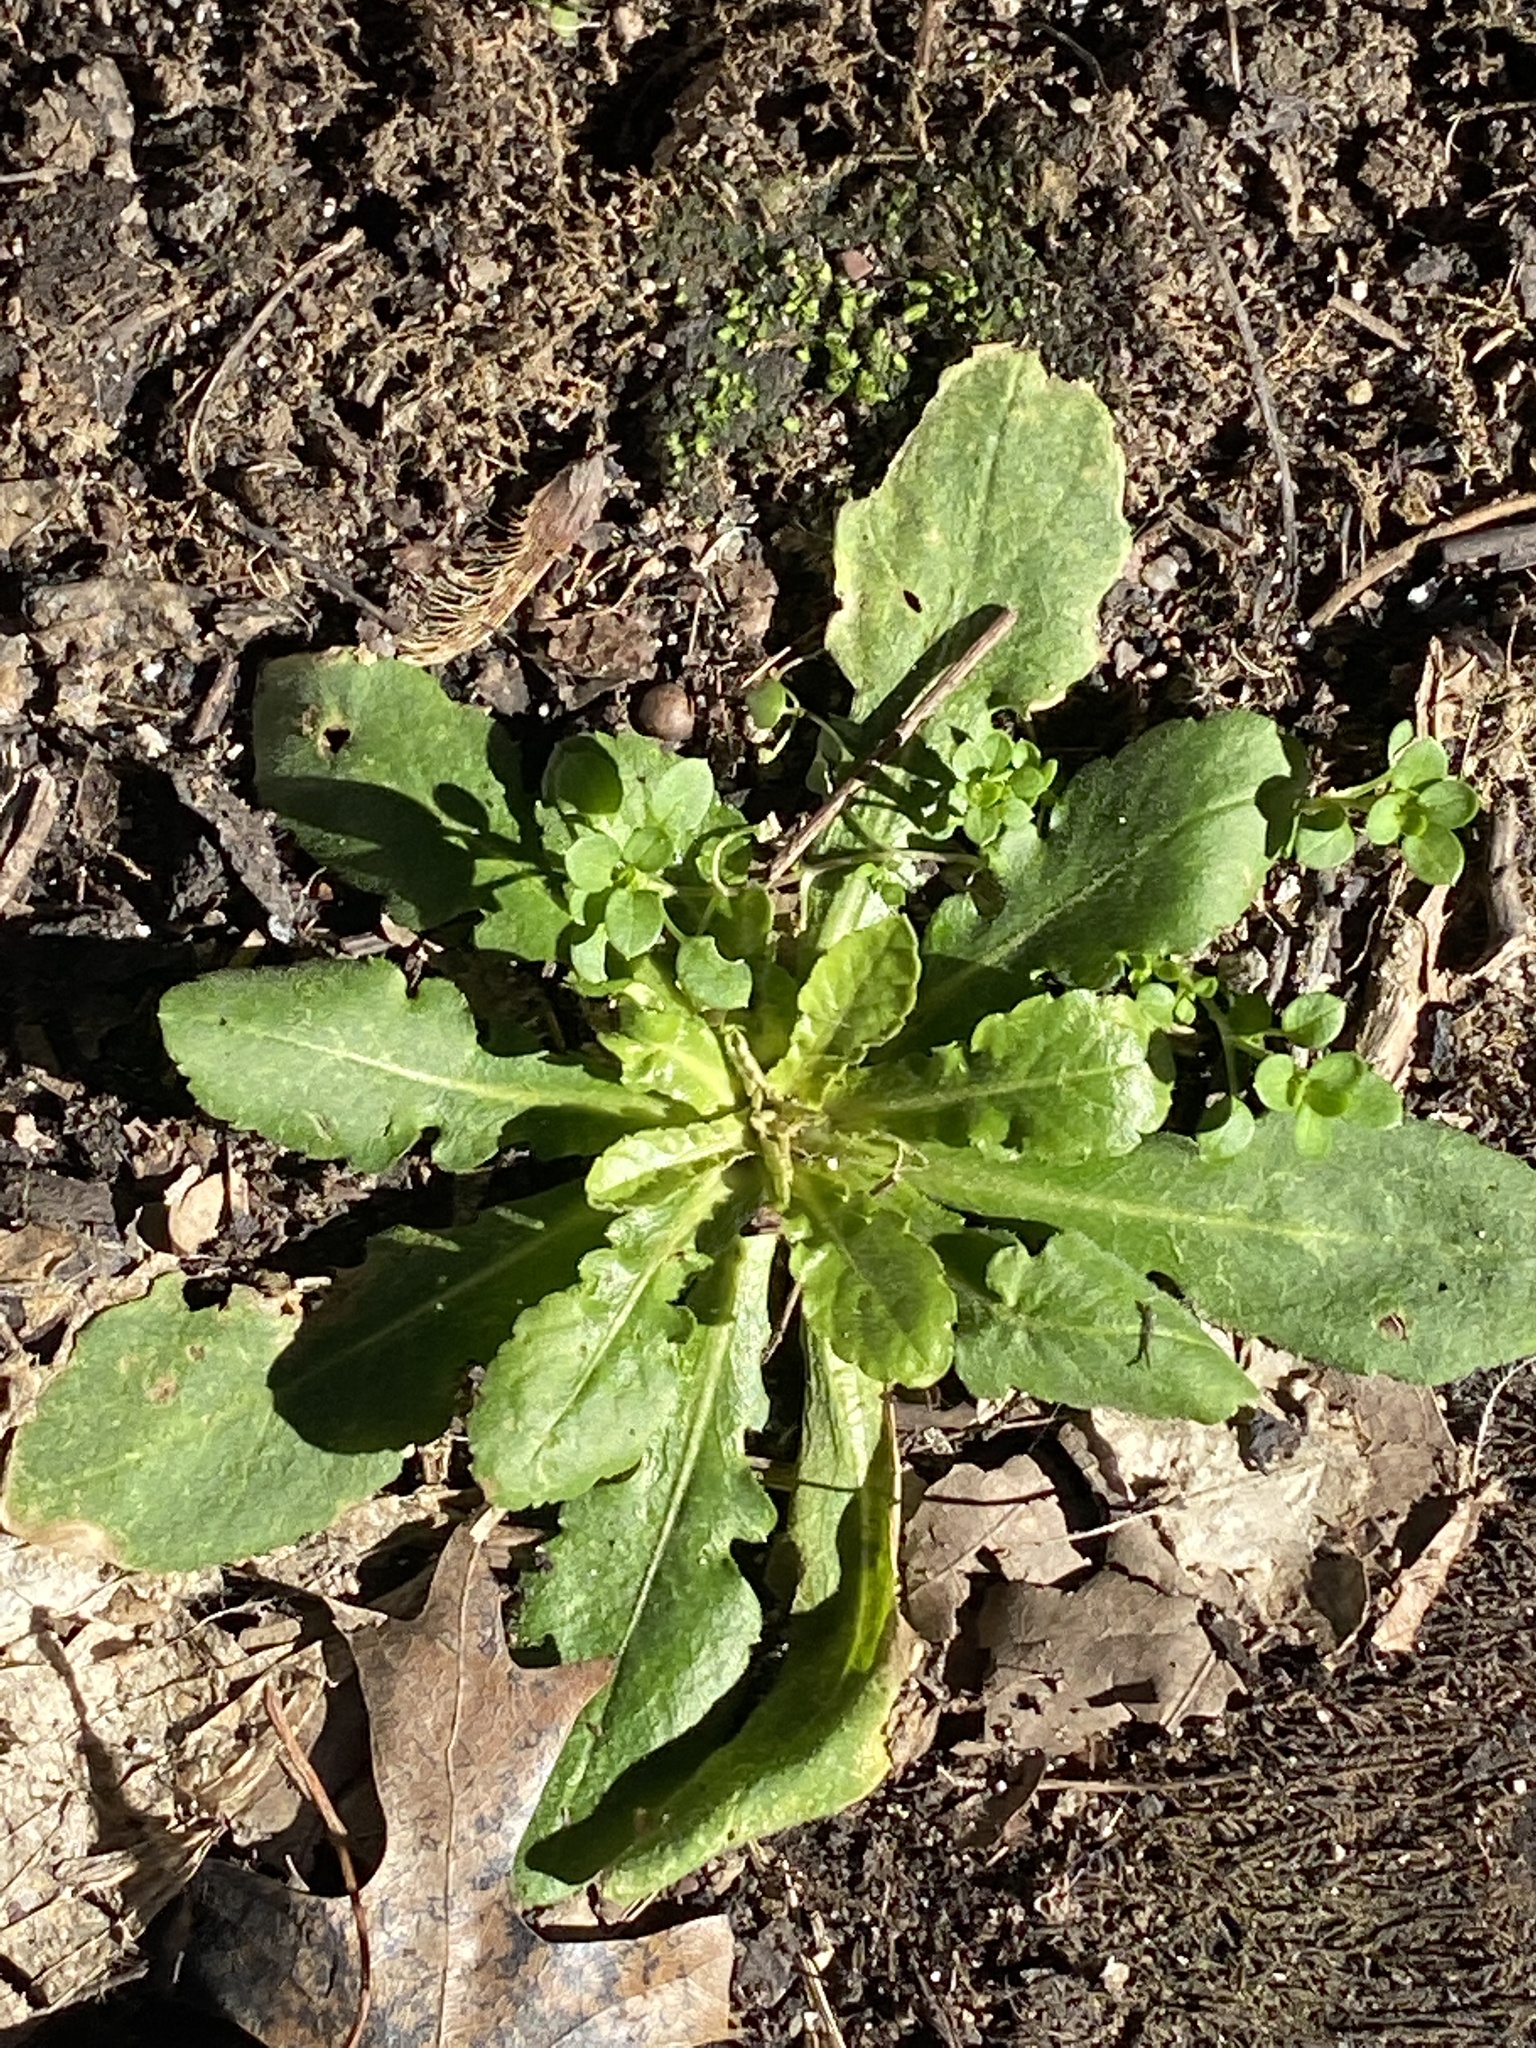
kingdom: Plantae
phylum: Tracheophyta
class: Magnoliopsida
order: Asterales
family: Asteraceae
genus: Hypochaeris
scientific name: Hypochaeris radicata
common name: Flatweed
